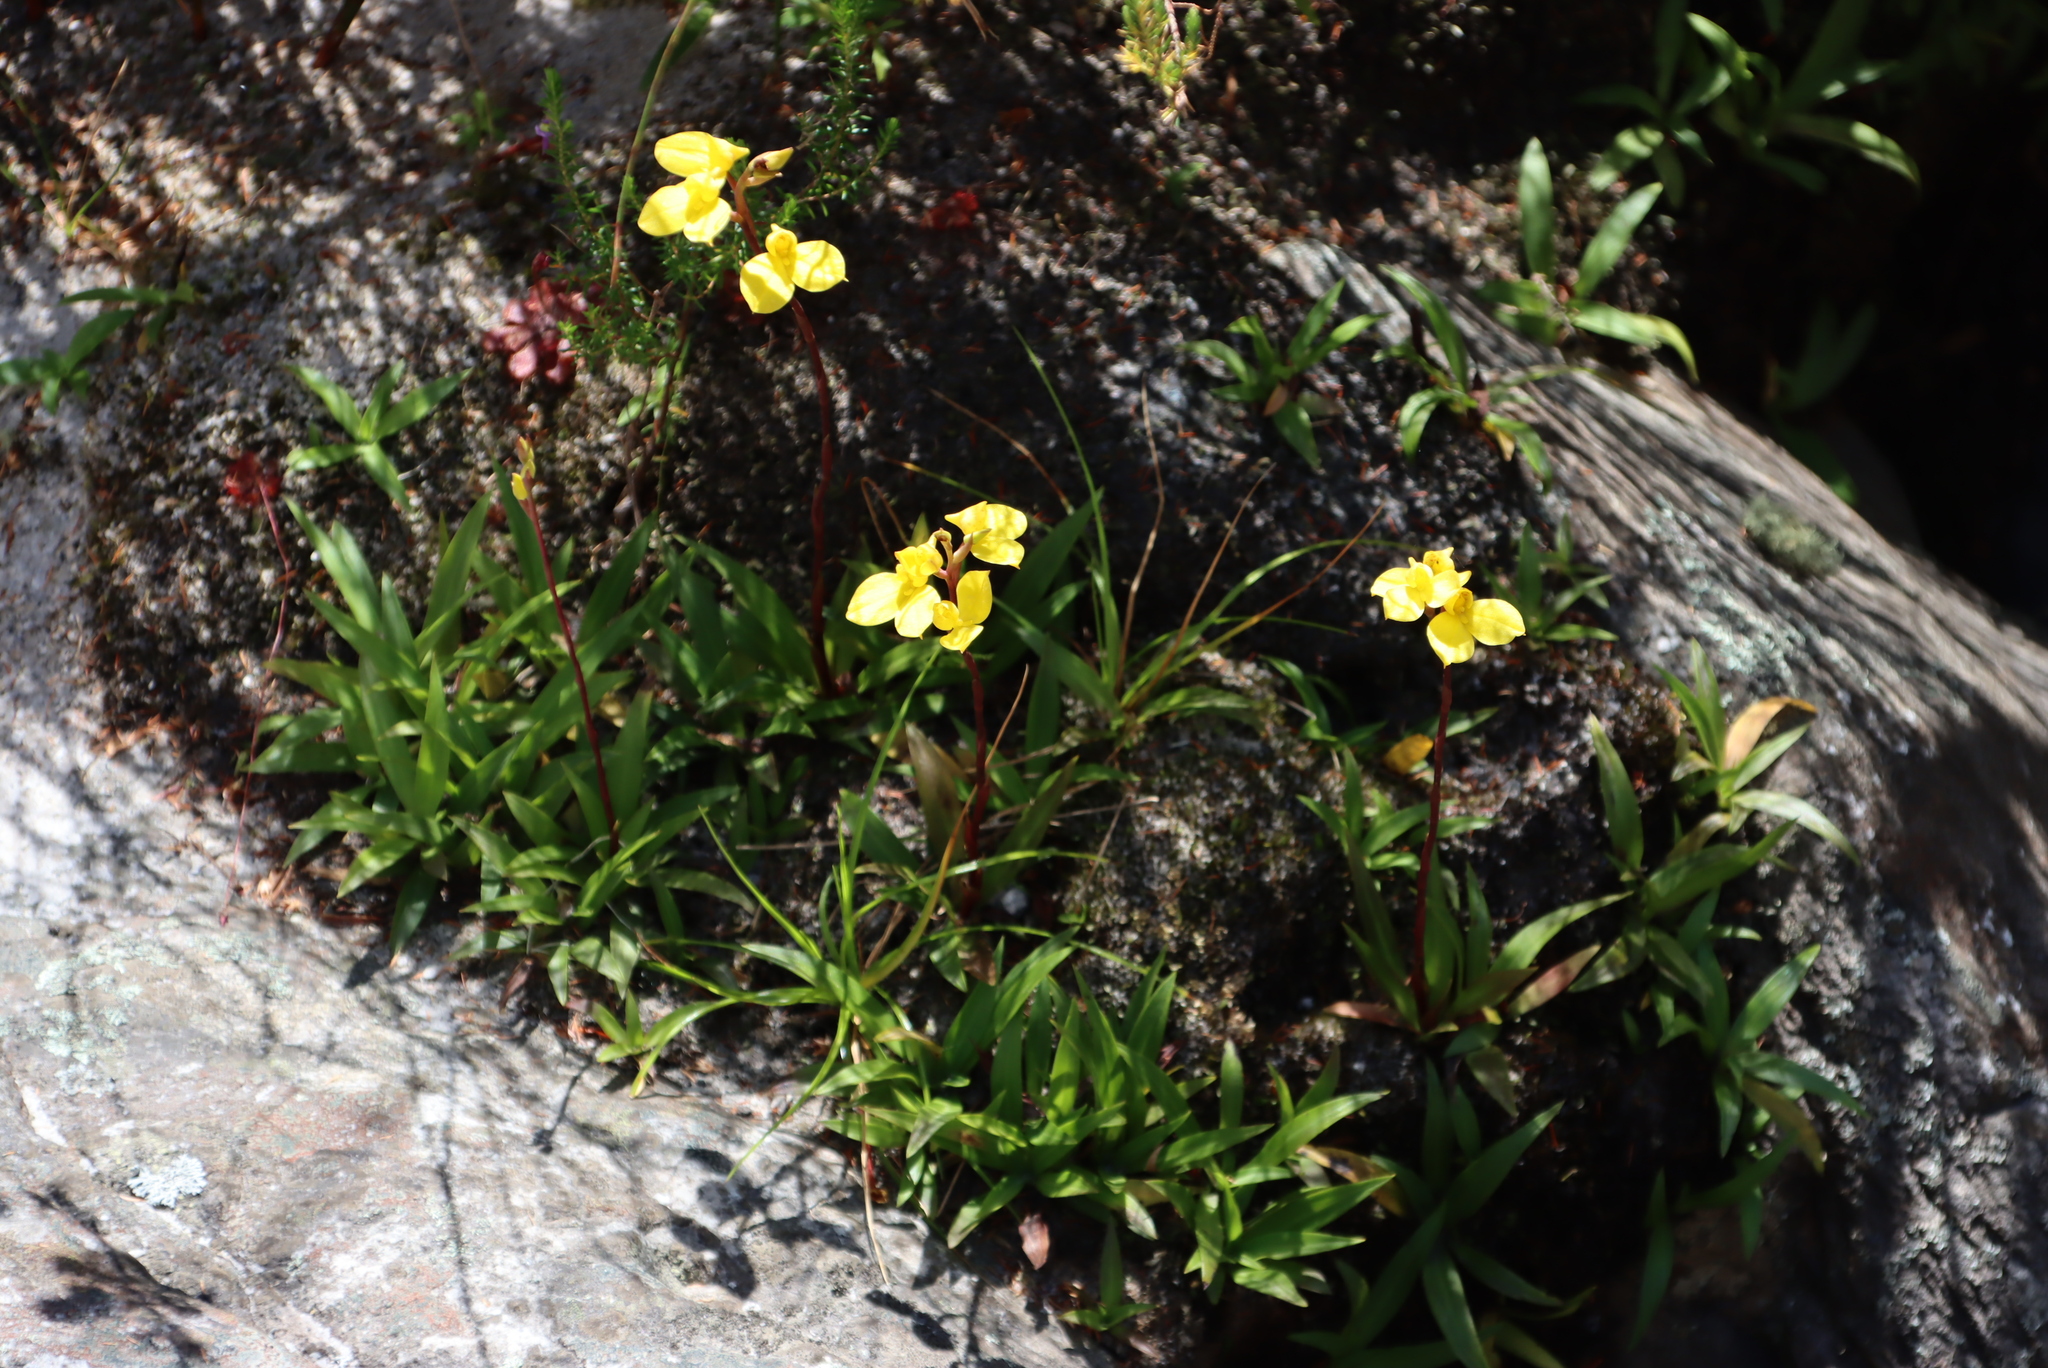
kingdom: Plantae
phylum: Tracheophyta
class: Liliopsida
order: Asparagales
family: Orchidaceae
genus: Disa
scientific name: Disa aurata
